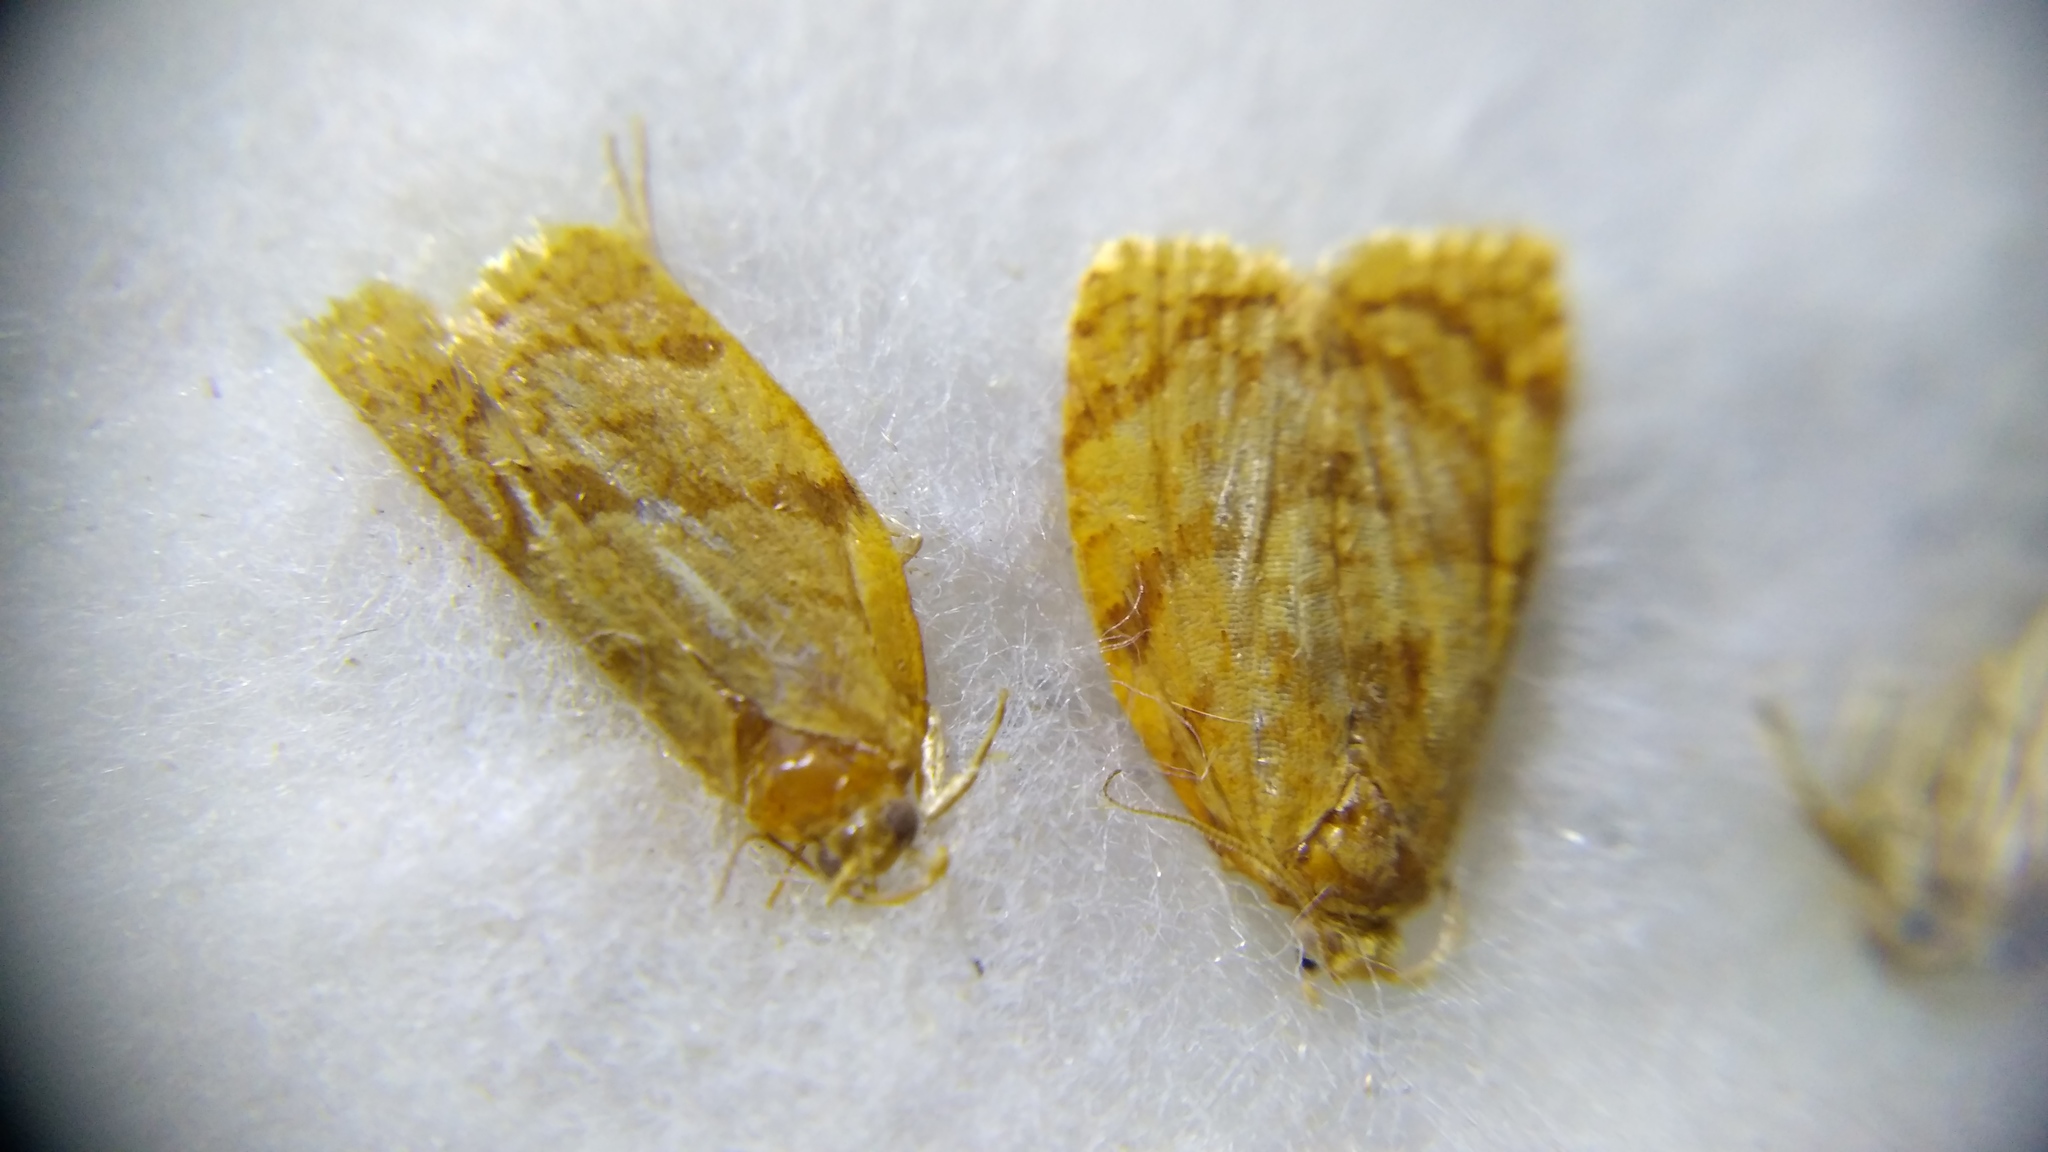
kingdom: Animalia
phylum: Arthropoda
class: Insecta
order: Lepidoptera
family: Tortricidae
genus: Adoxophyes
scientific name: Adoxophyes orana
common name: Summer fruit tortrix
